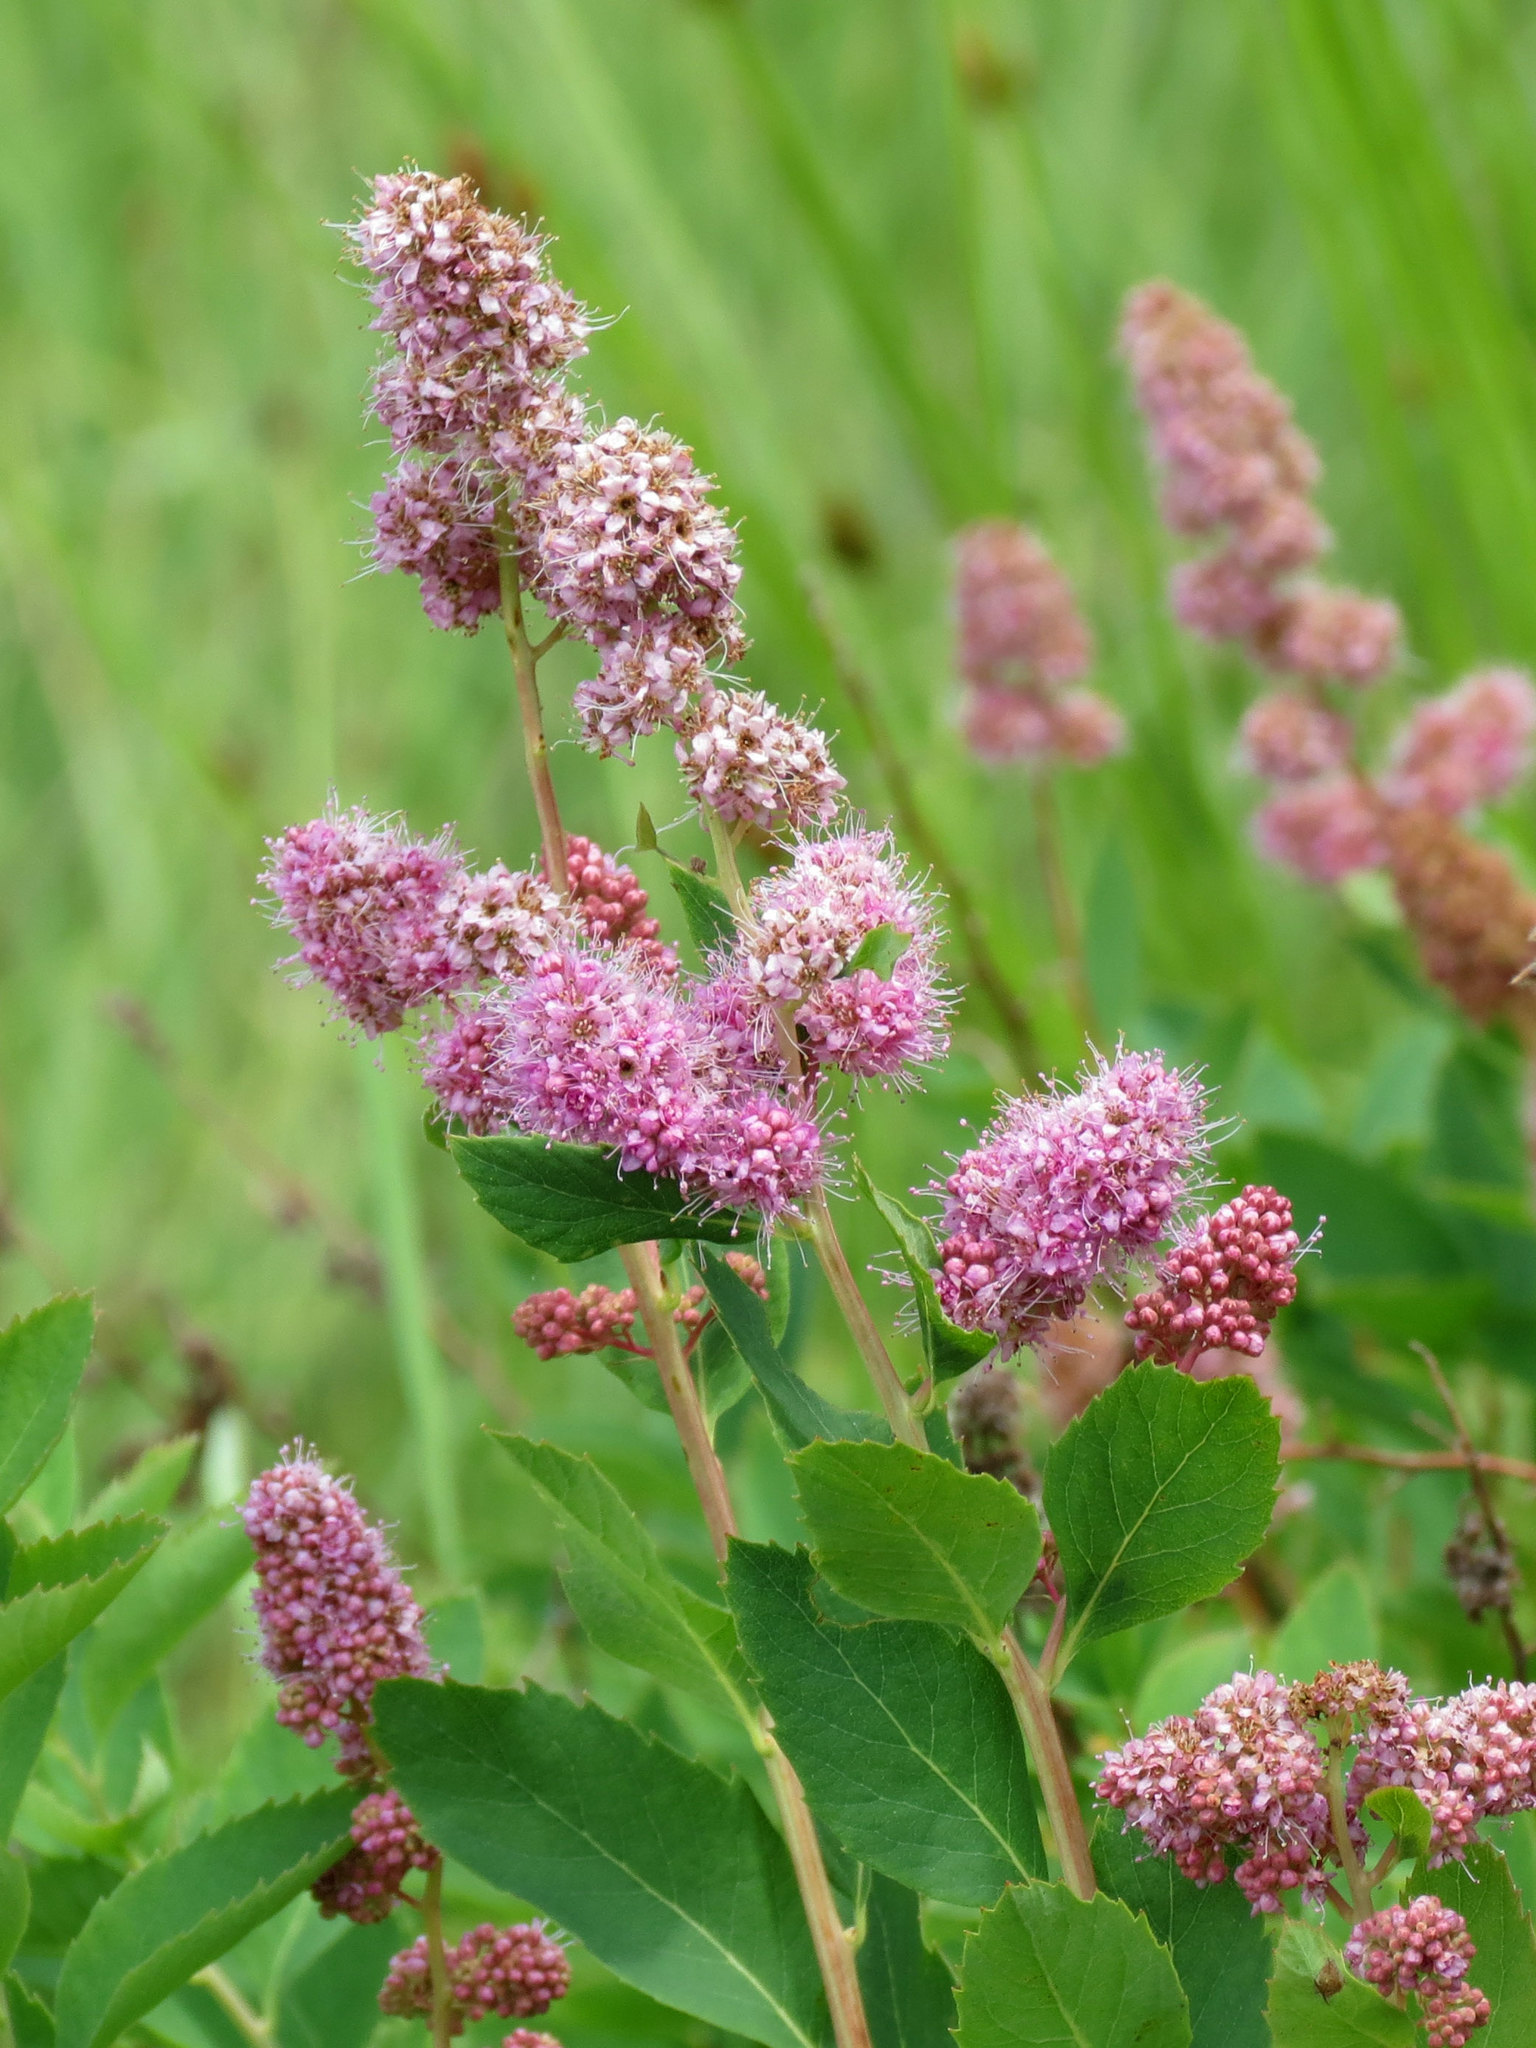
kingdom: Plantae
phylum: Tracheophyta
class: Magnoliopsida
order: Rosales
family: Rosaceae
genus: Spiraea
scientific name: Spiraea douglasii
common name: Steeplebush
